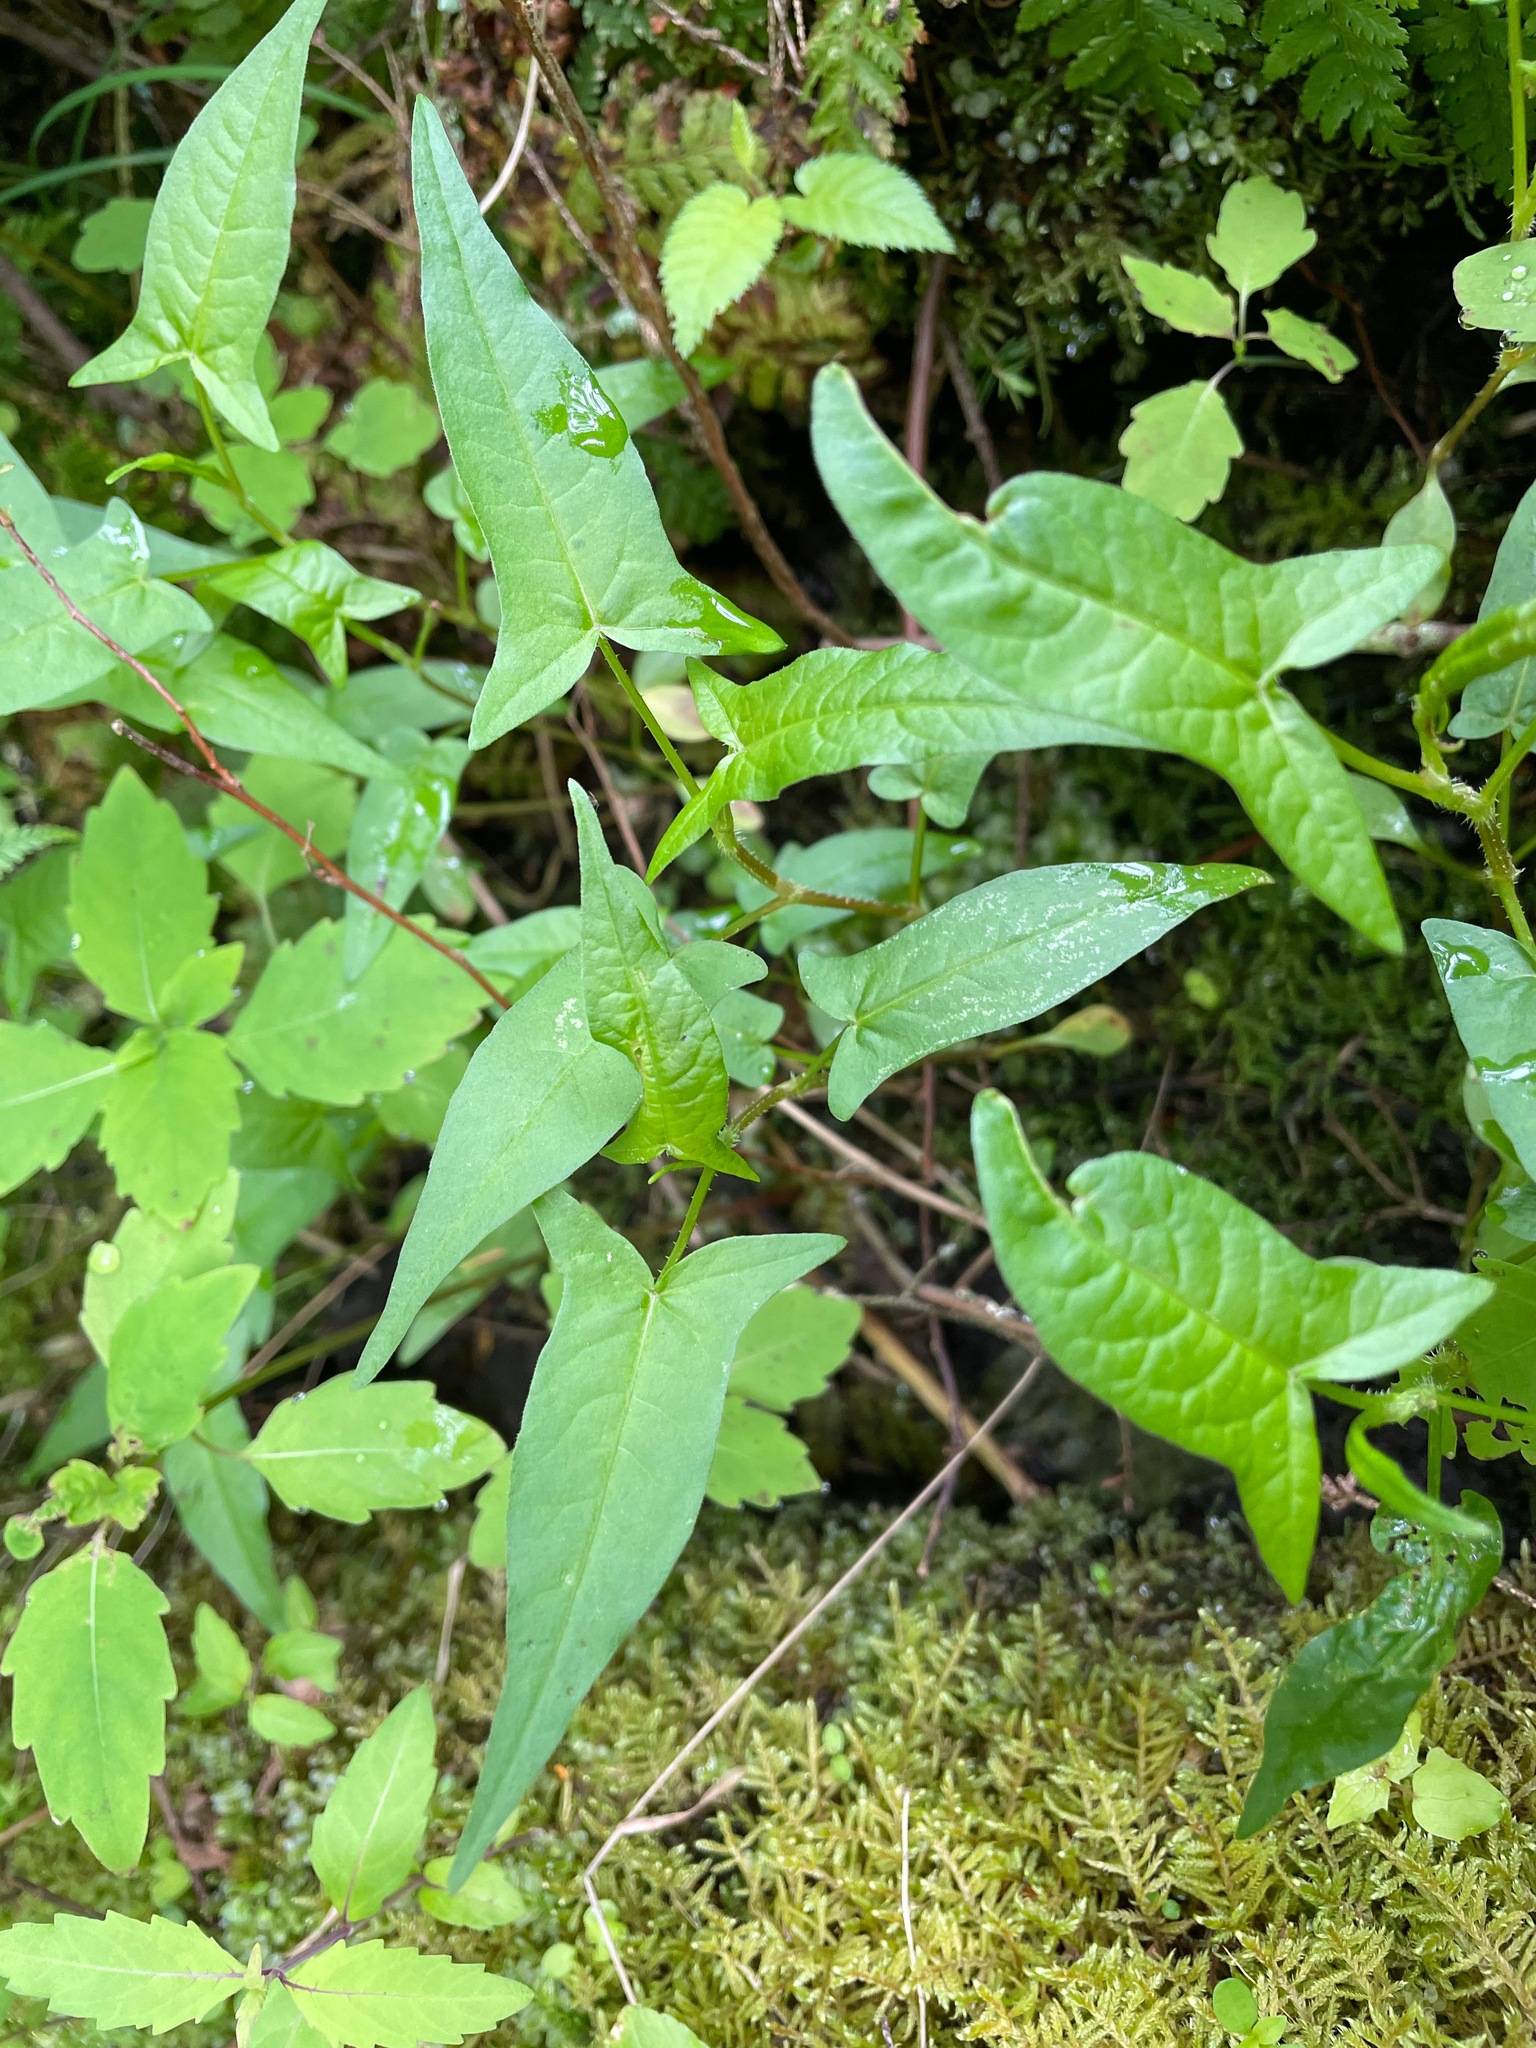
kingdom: Plantae
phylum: Tracheophyta
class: Magnoliopsida
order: Caryophyllales
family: Polygonaceae
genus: Persicaria
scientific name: Persicaria arifolia
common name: Halberd-leaved tear-thumb
